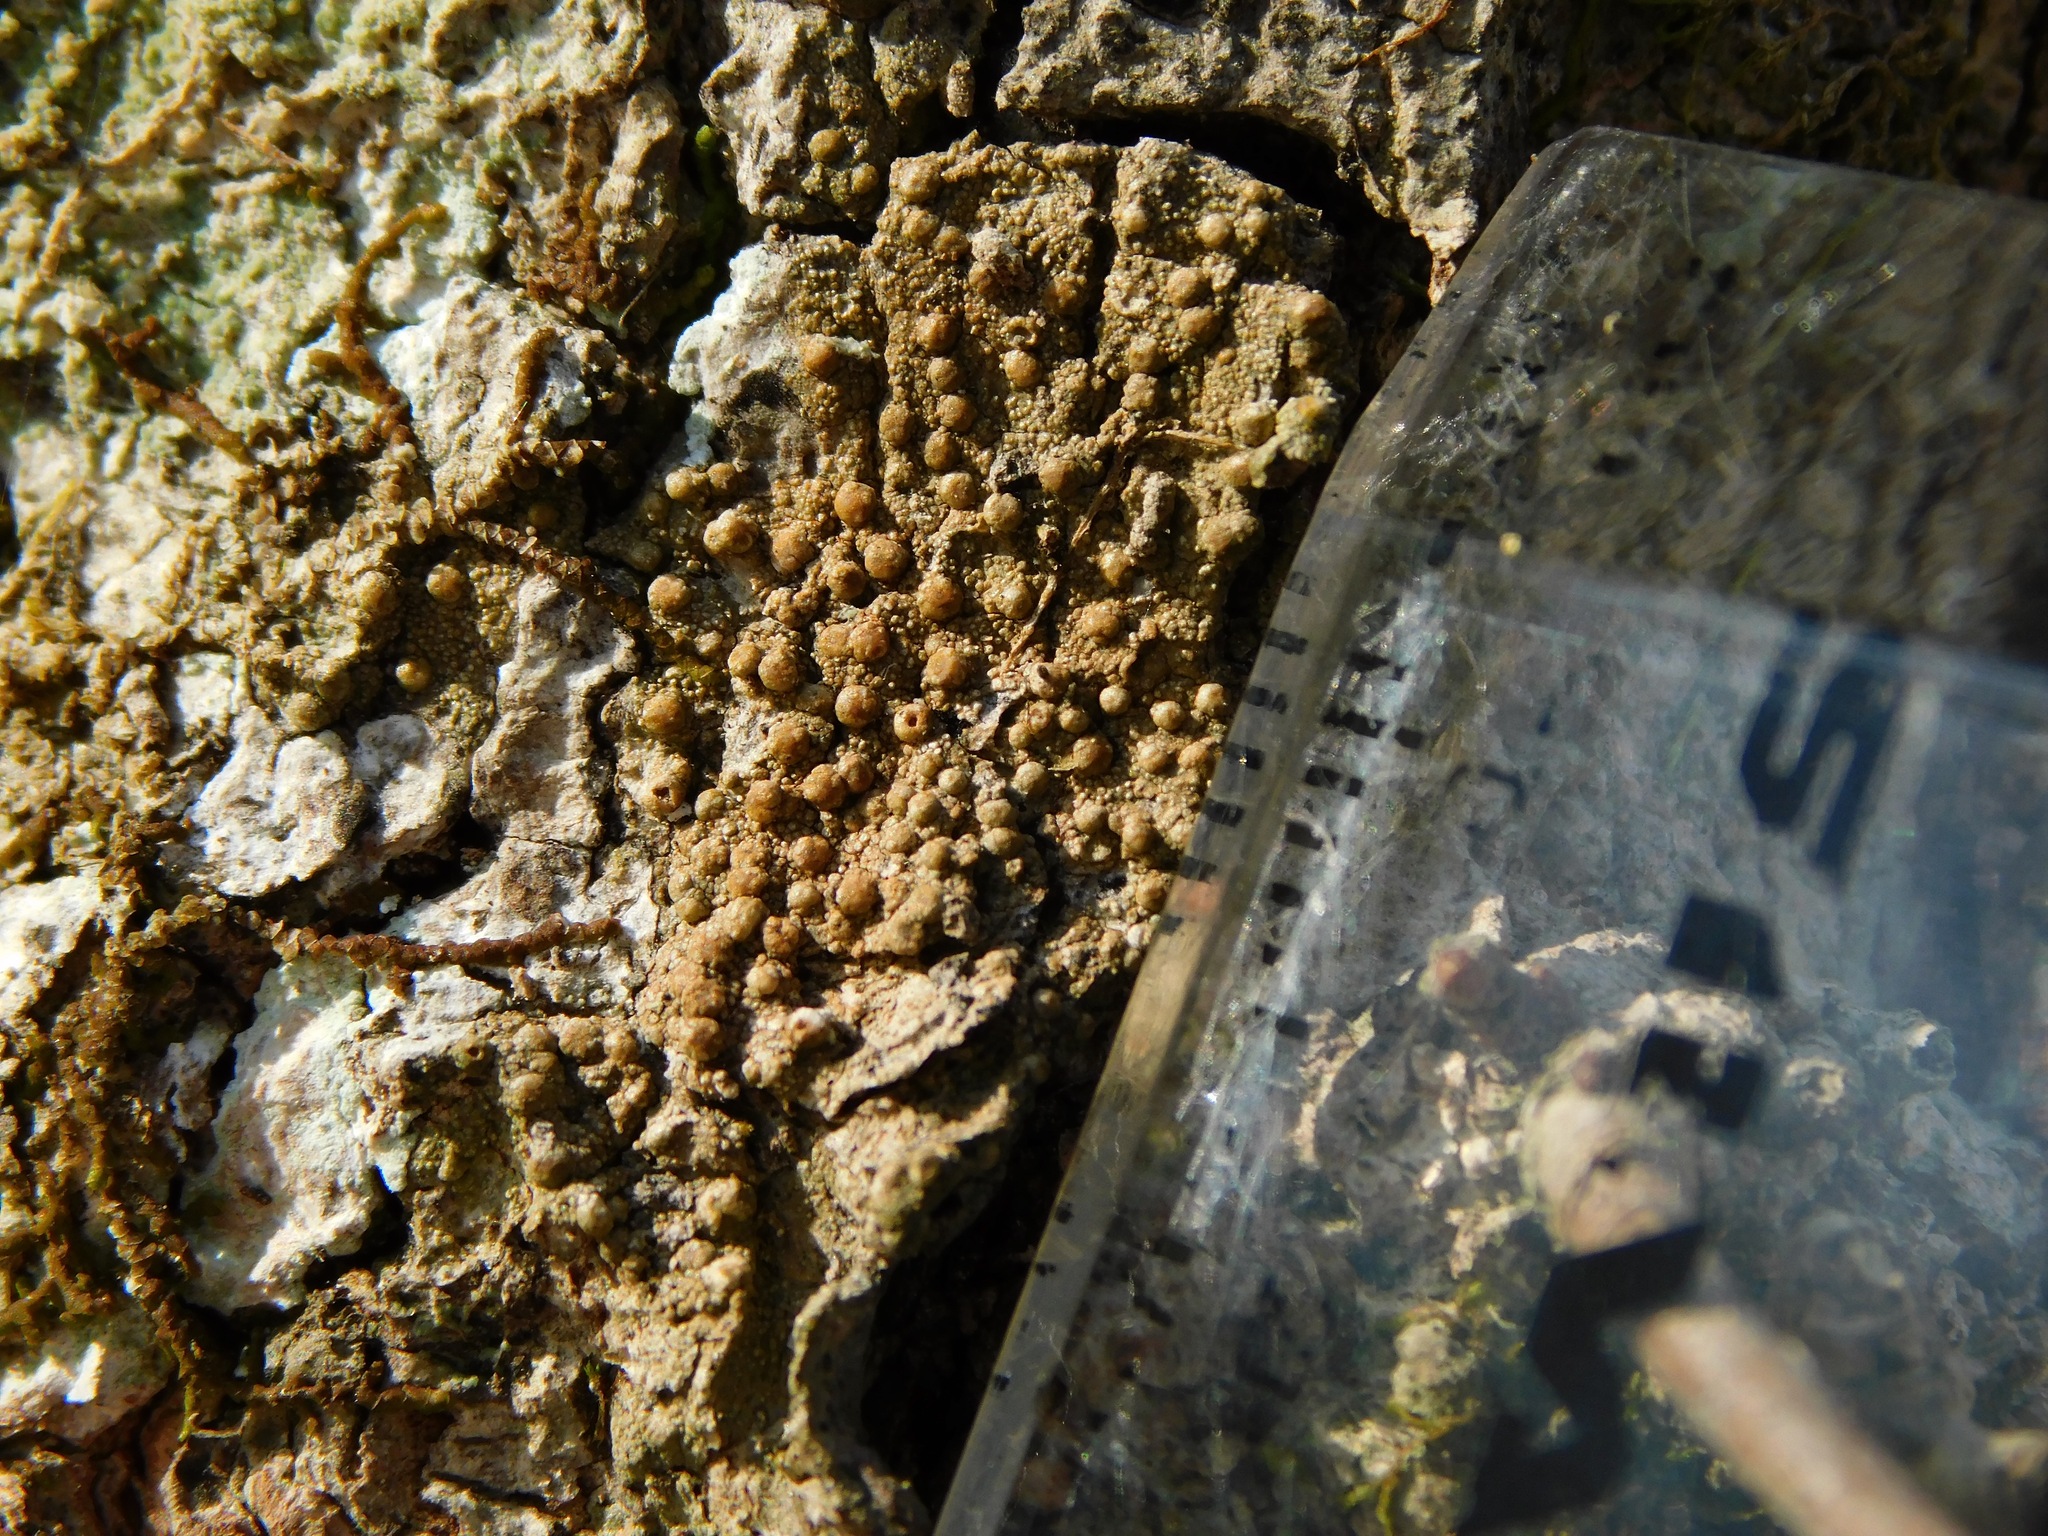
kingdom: Fungi
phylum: Ascomycota
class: Lecanoromycetes
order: Pertusariales
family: Pertusariaceae
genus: Porina
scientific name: Porina heterospora
